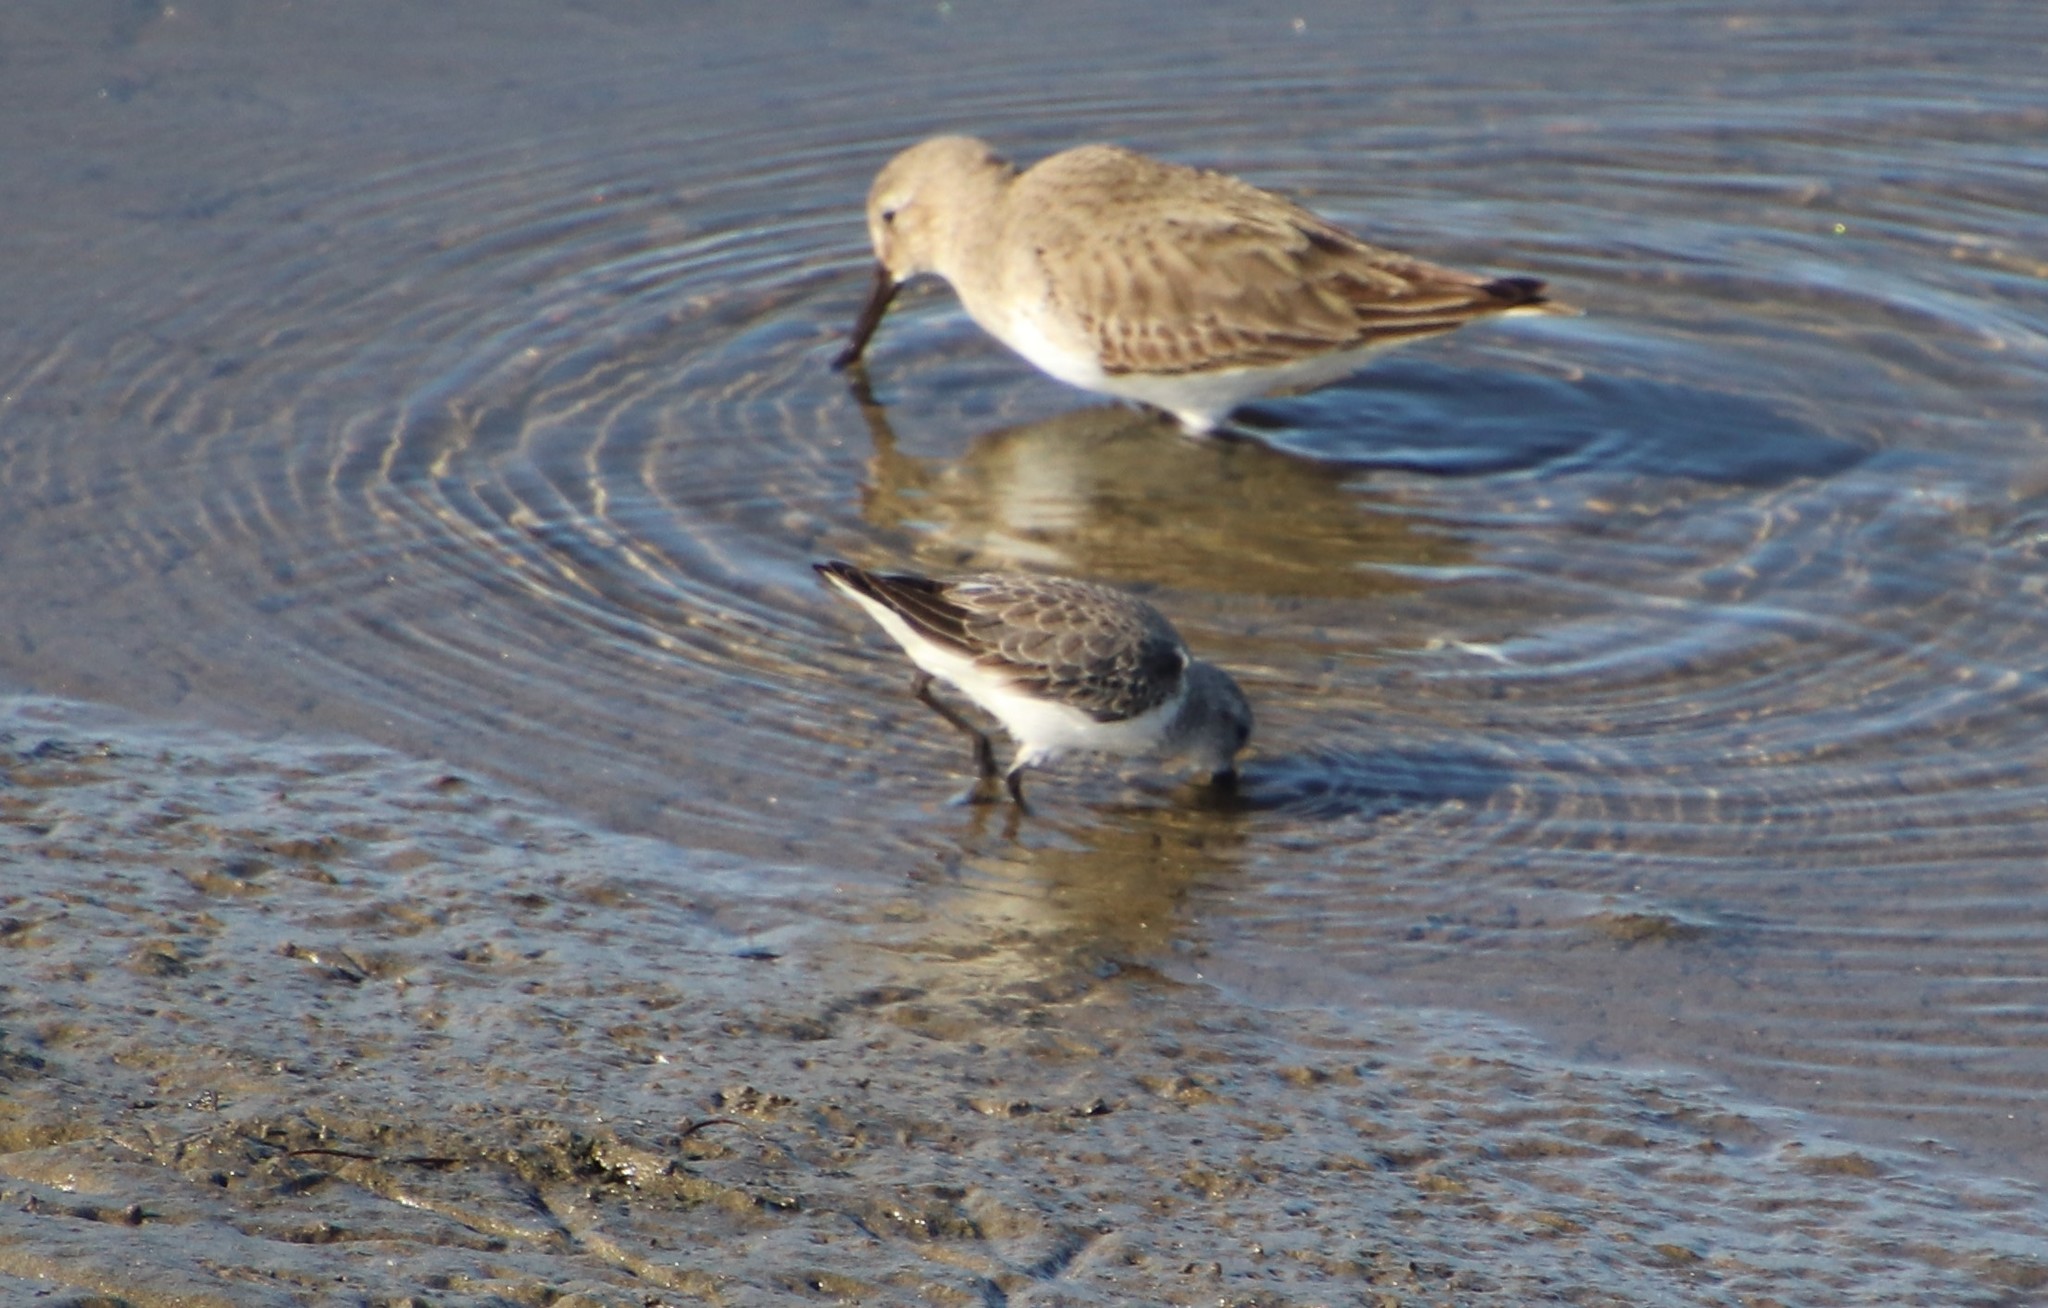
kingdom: Animalia
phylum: Chordata
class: Aves
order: Charadriiformes
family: Scolopacidae
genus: Calidris
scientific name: Calidris mauri
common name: Western sandpiper
